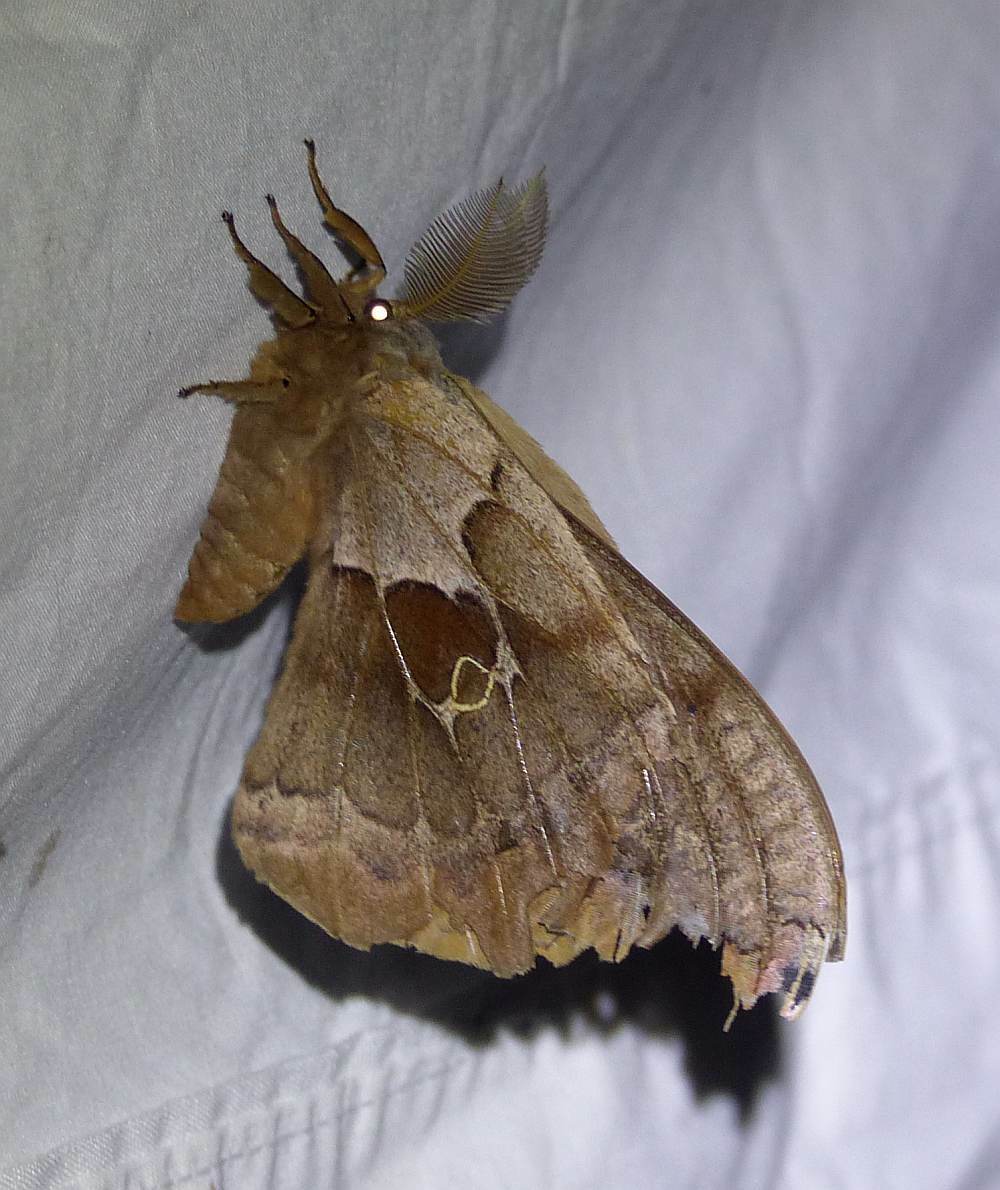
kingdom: Animalia
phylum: Arthropoda
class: Insecta
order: Lepidoptera
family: Saturniidae
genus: Antheraea
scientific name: Antheraea polyphemus
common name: Polyphemus moth
